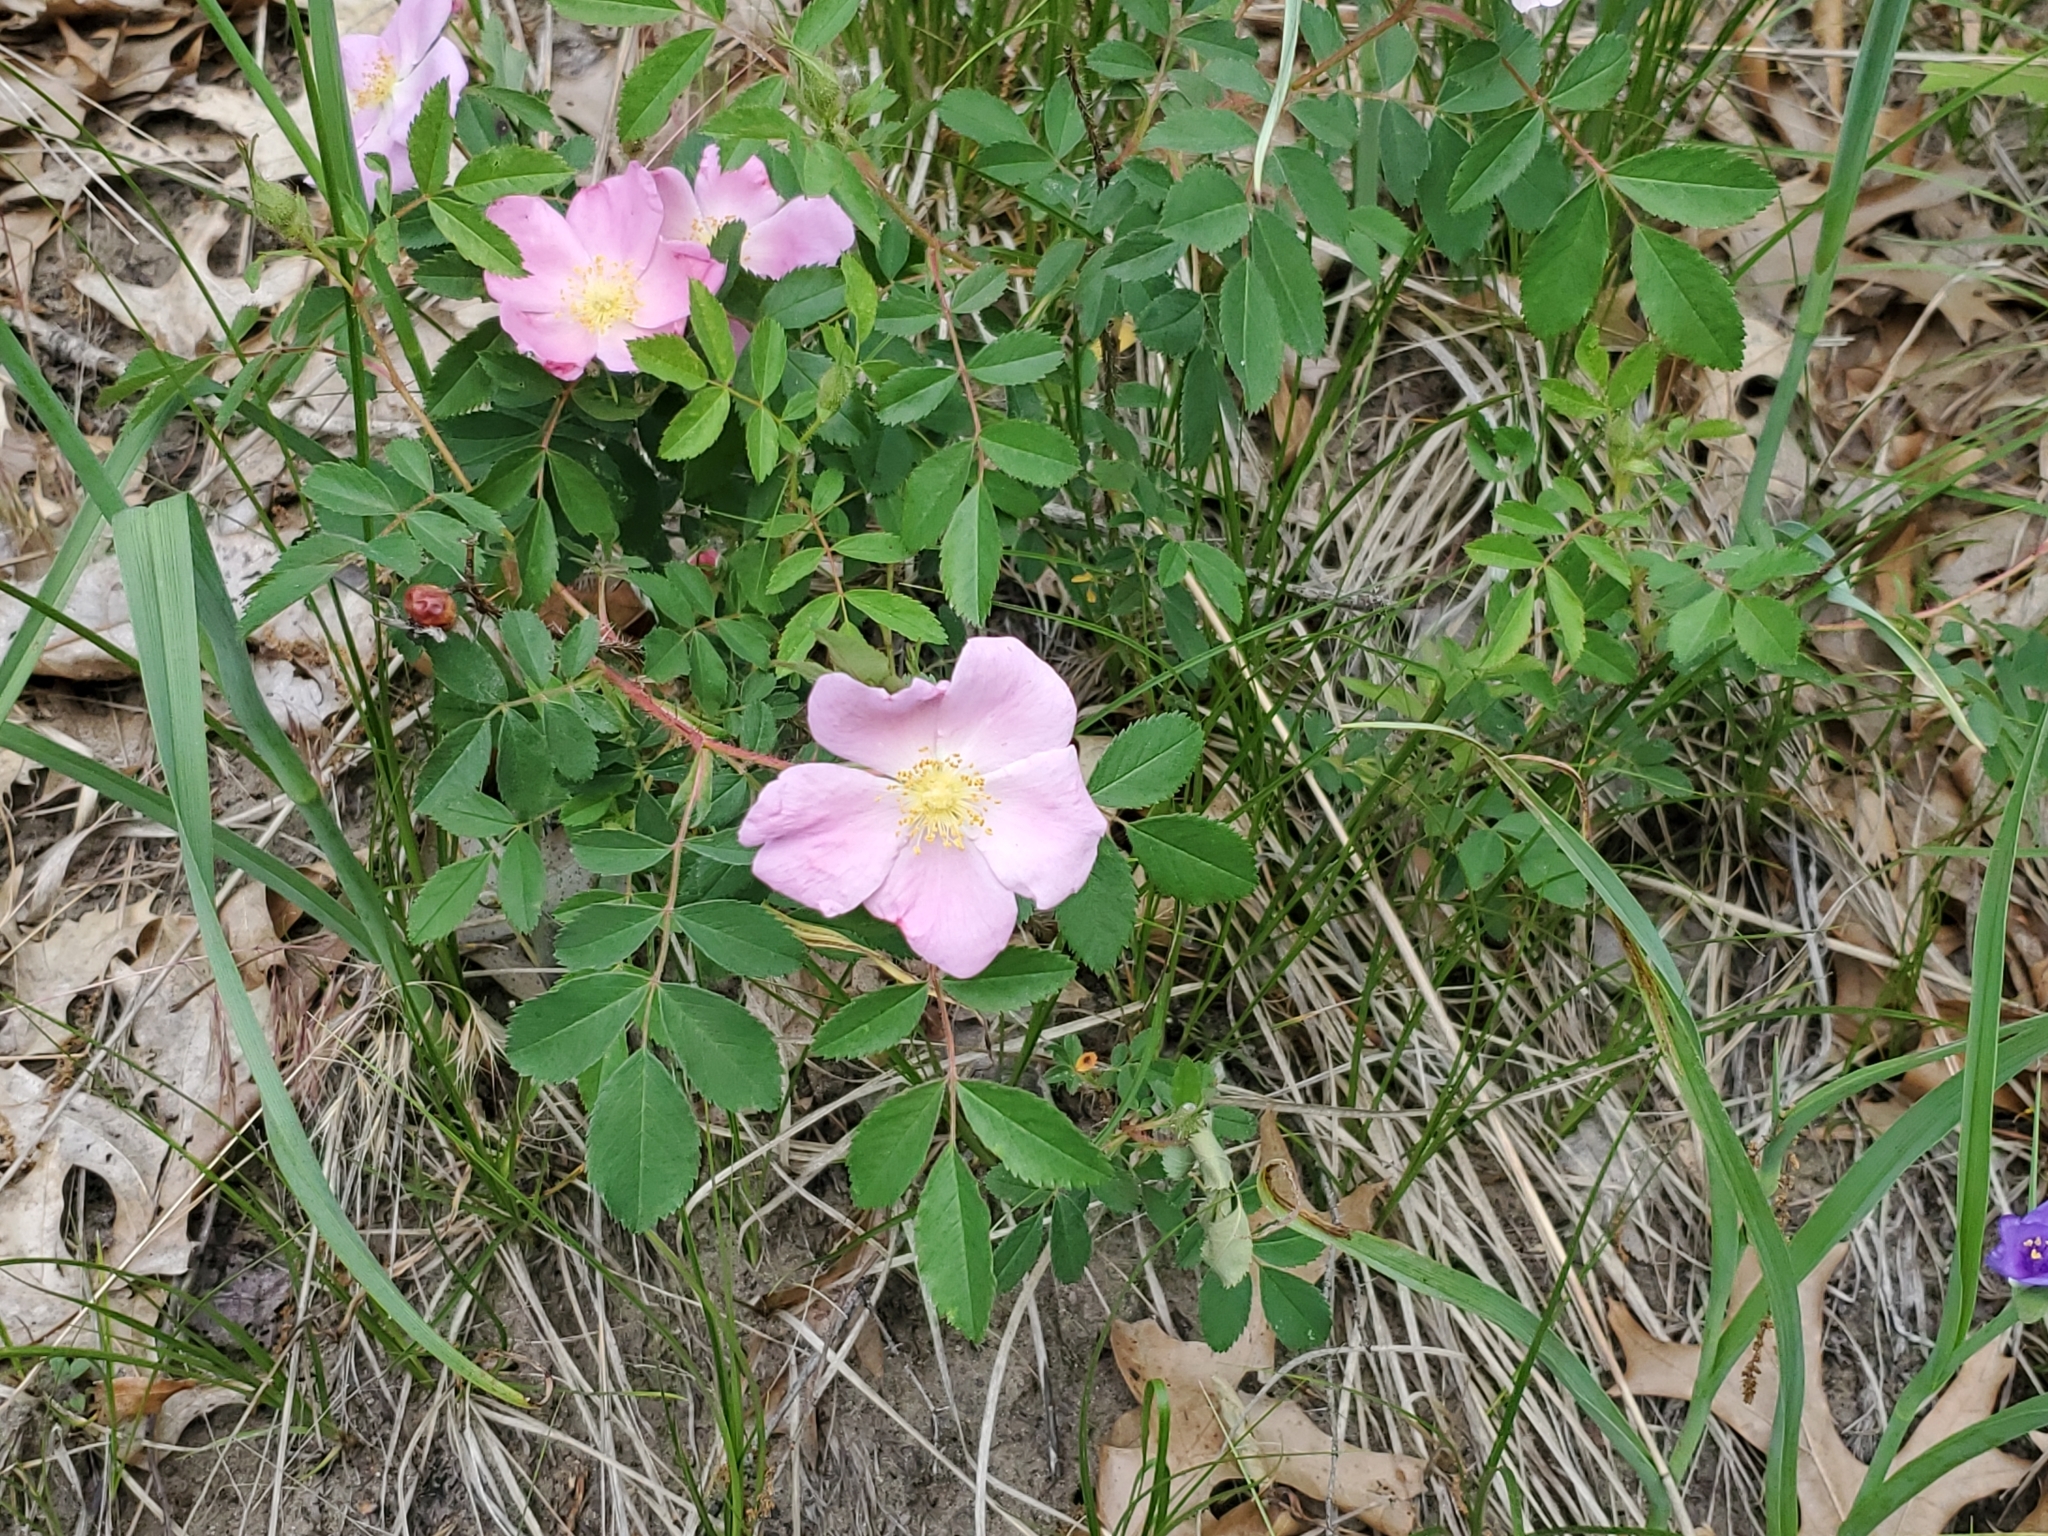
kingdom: Plantae
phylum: Tracheophyta
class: Magnoliopsida
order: Rosales
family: Rosaceae
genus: Rosa
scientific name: Rosa carolina
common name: Pasture rose
